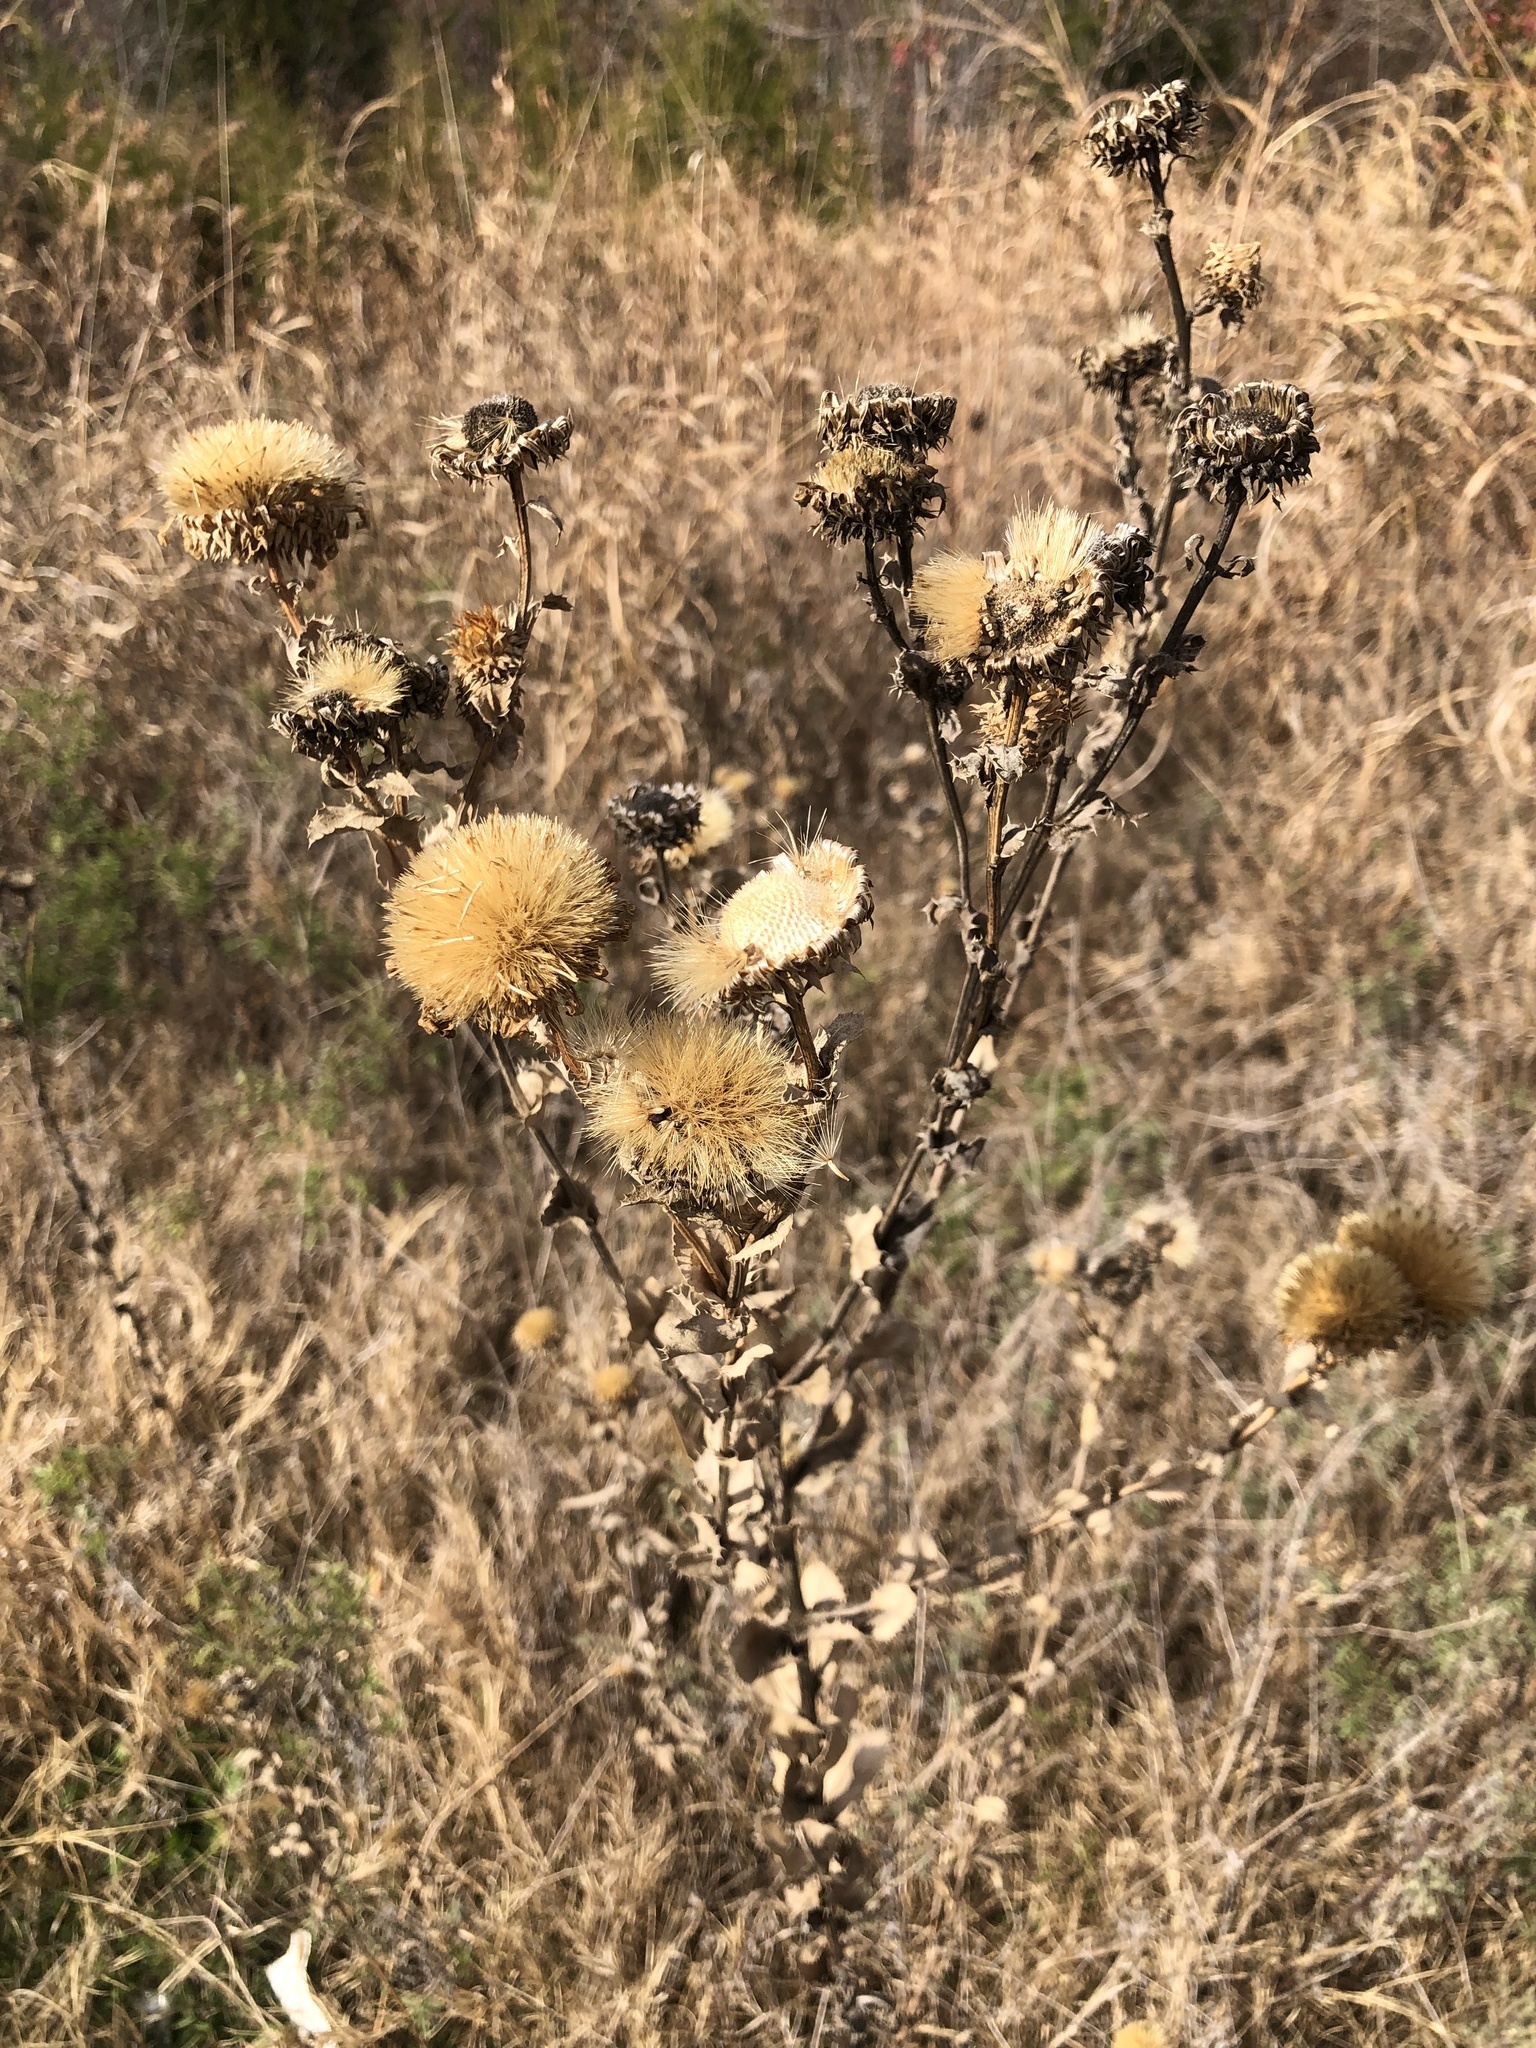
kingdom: Plantae
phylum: Tracheophyta
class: Magnoliopsida
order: Asterales
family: Asteraceae
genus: Grindelia
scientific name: Grindelia ciliata
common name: Goldenweed
